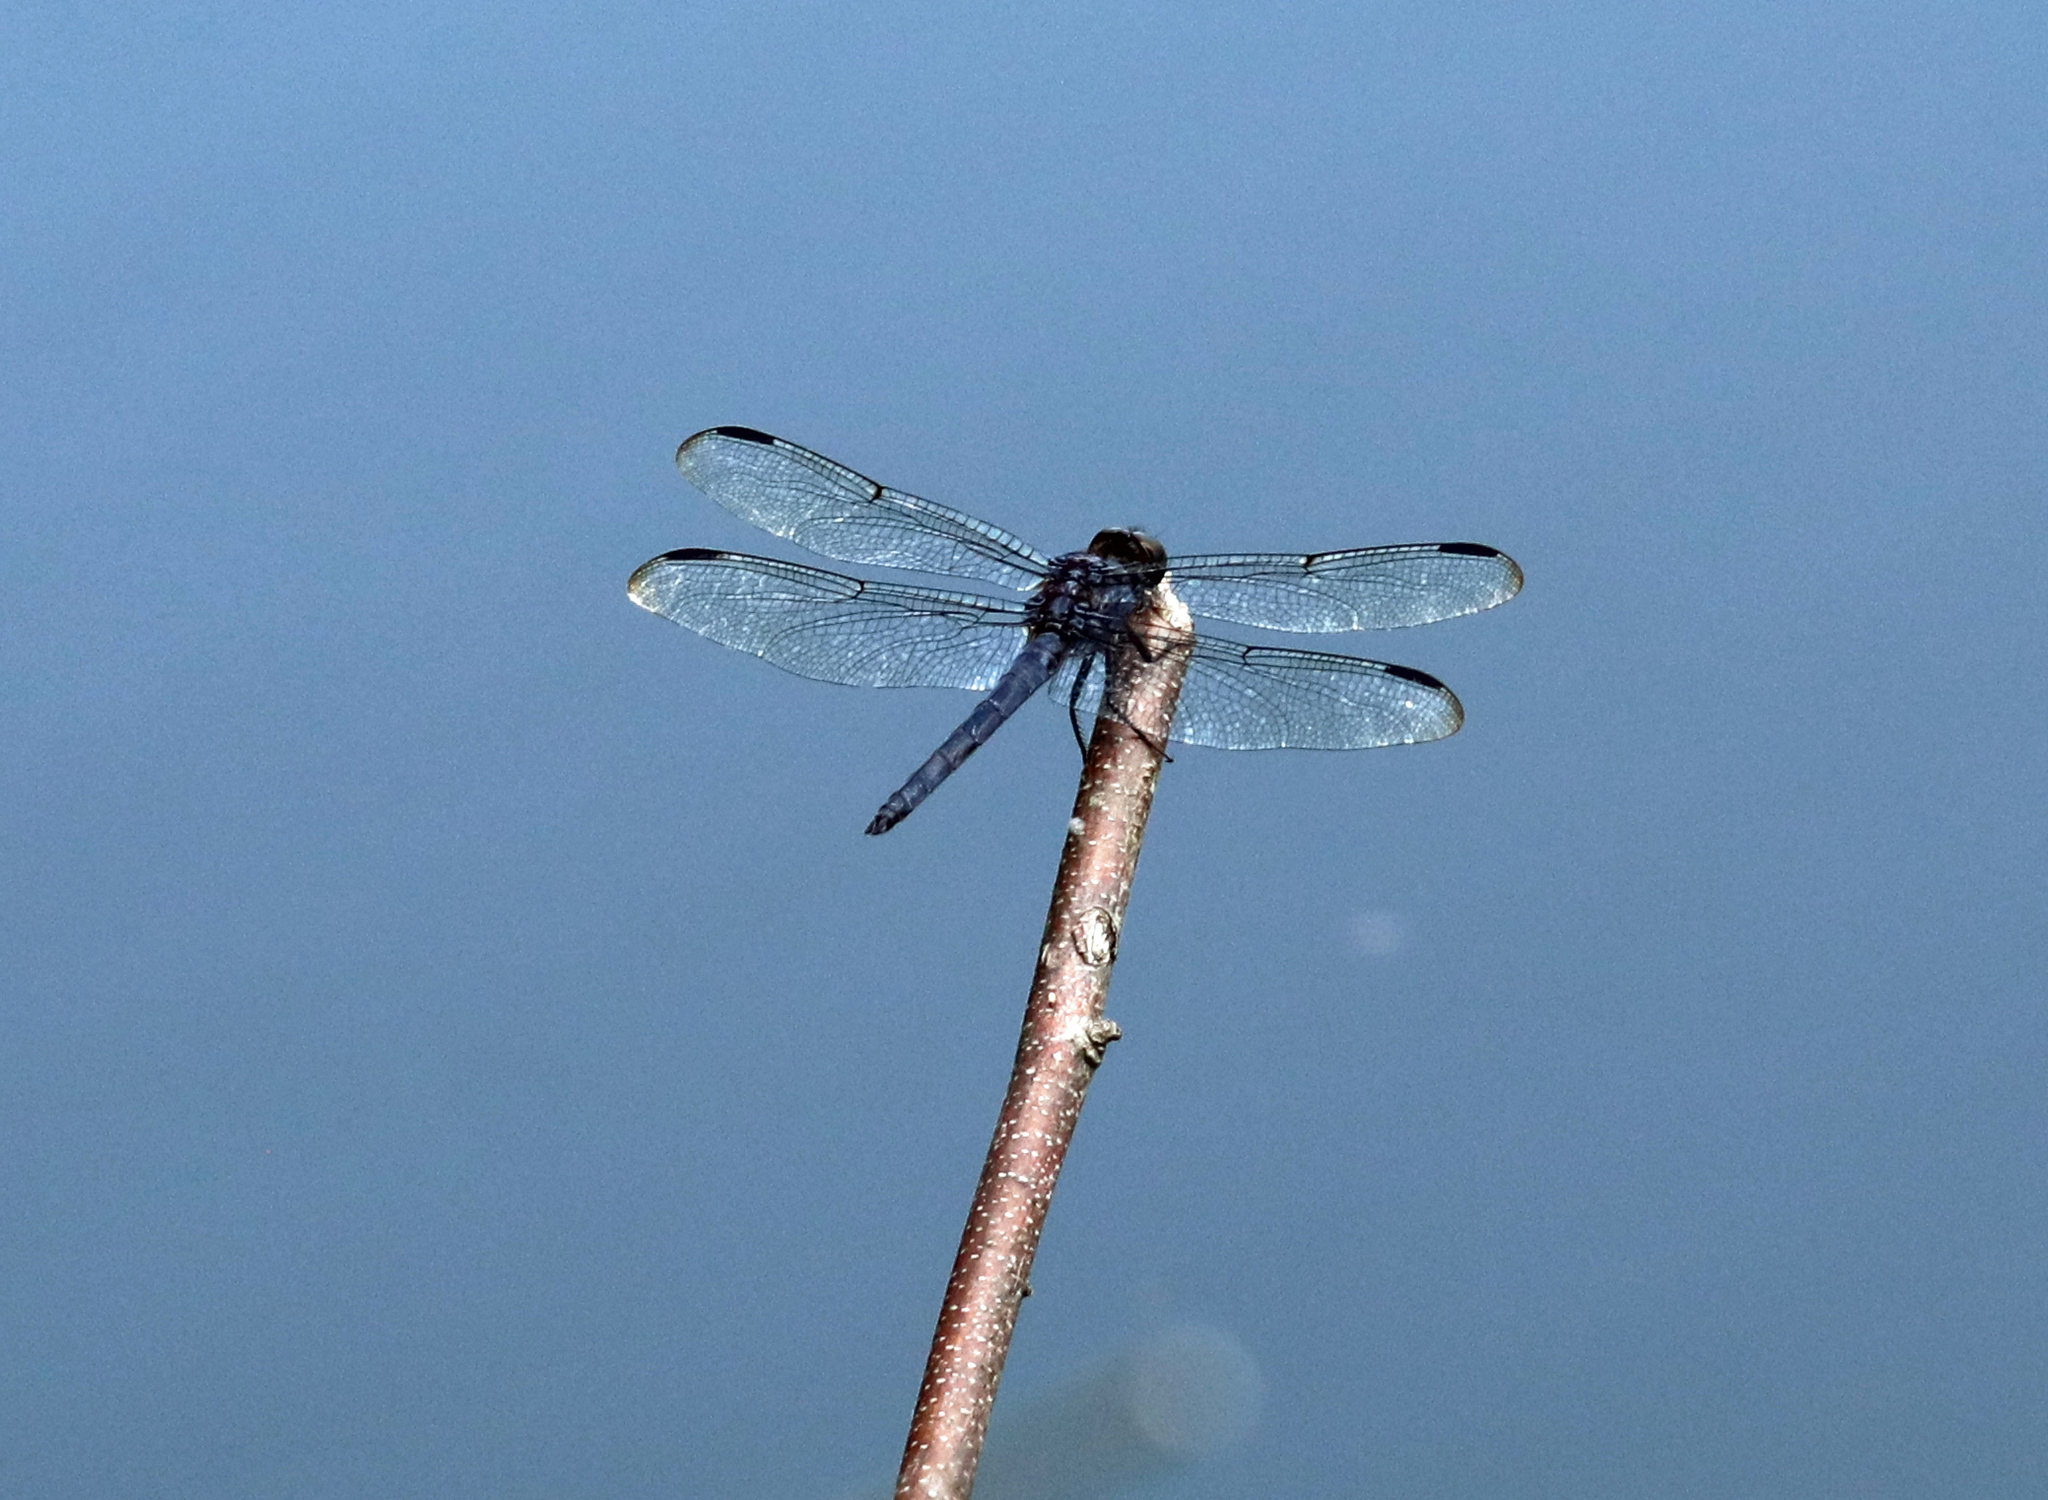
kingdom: Animalia
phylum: Arthropoda
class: Insecta
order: Odonata
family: Libellulidae
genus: Libellula
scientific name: Libellula incesta
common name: Slaty skimmer
